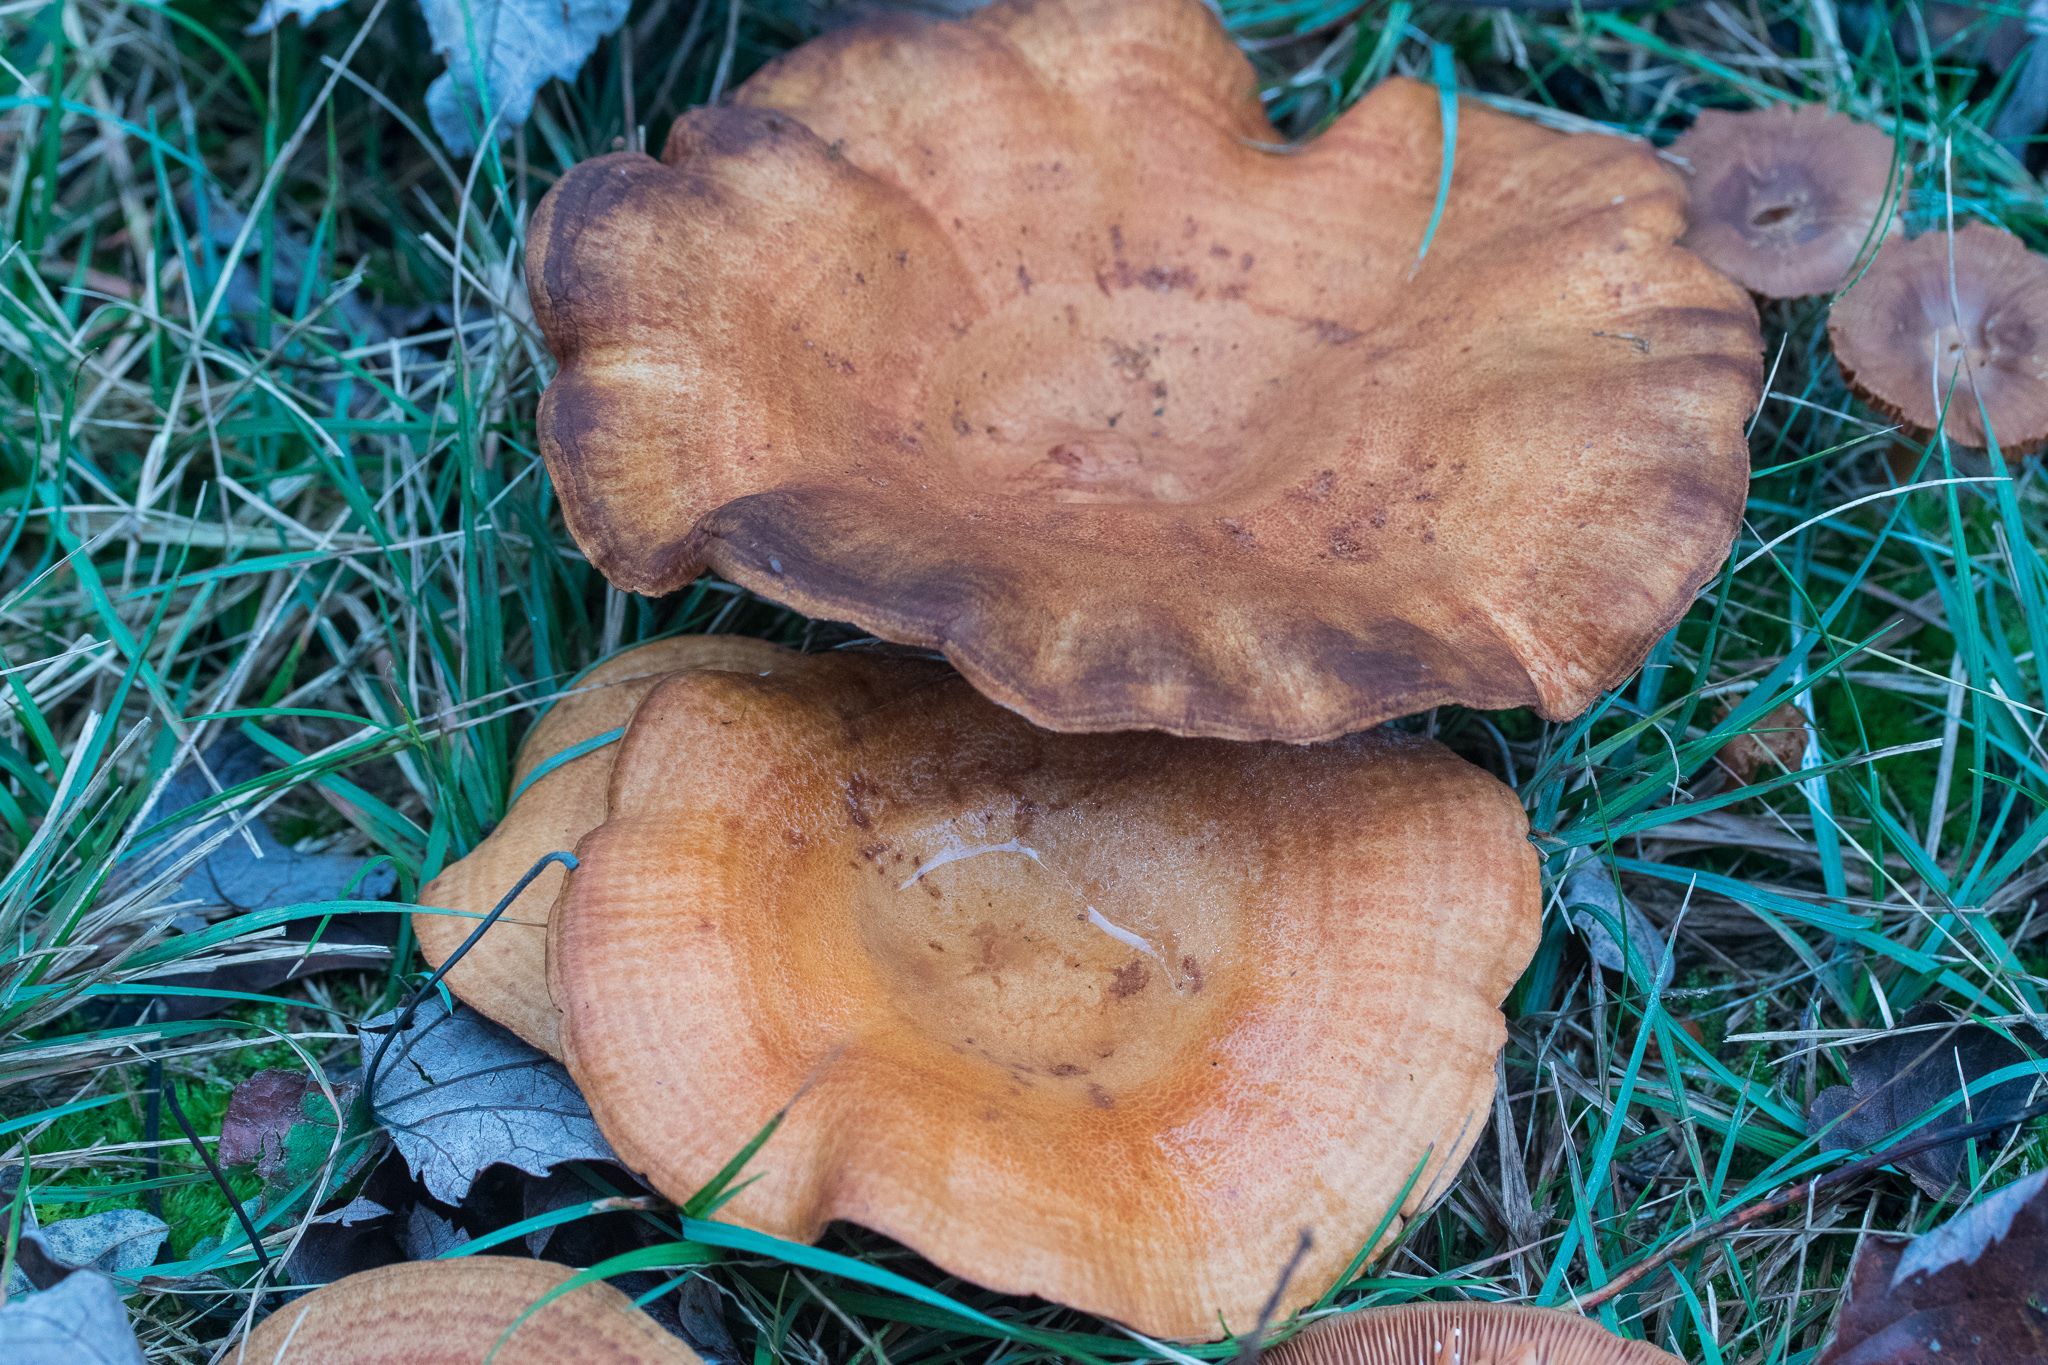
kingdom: Fungi
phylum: Basidiomycota
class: Agaricomycetes
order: Russulales
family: Russulaceae
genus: Lactarius
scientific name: Lactarius peckii
